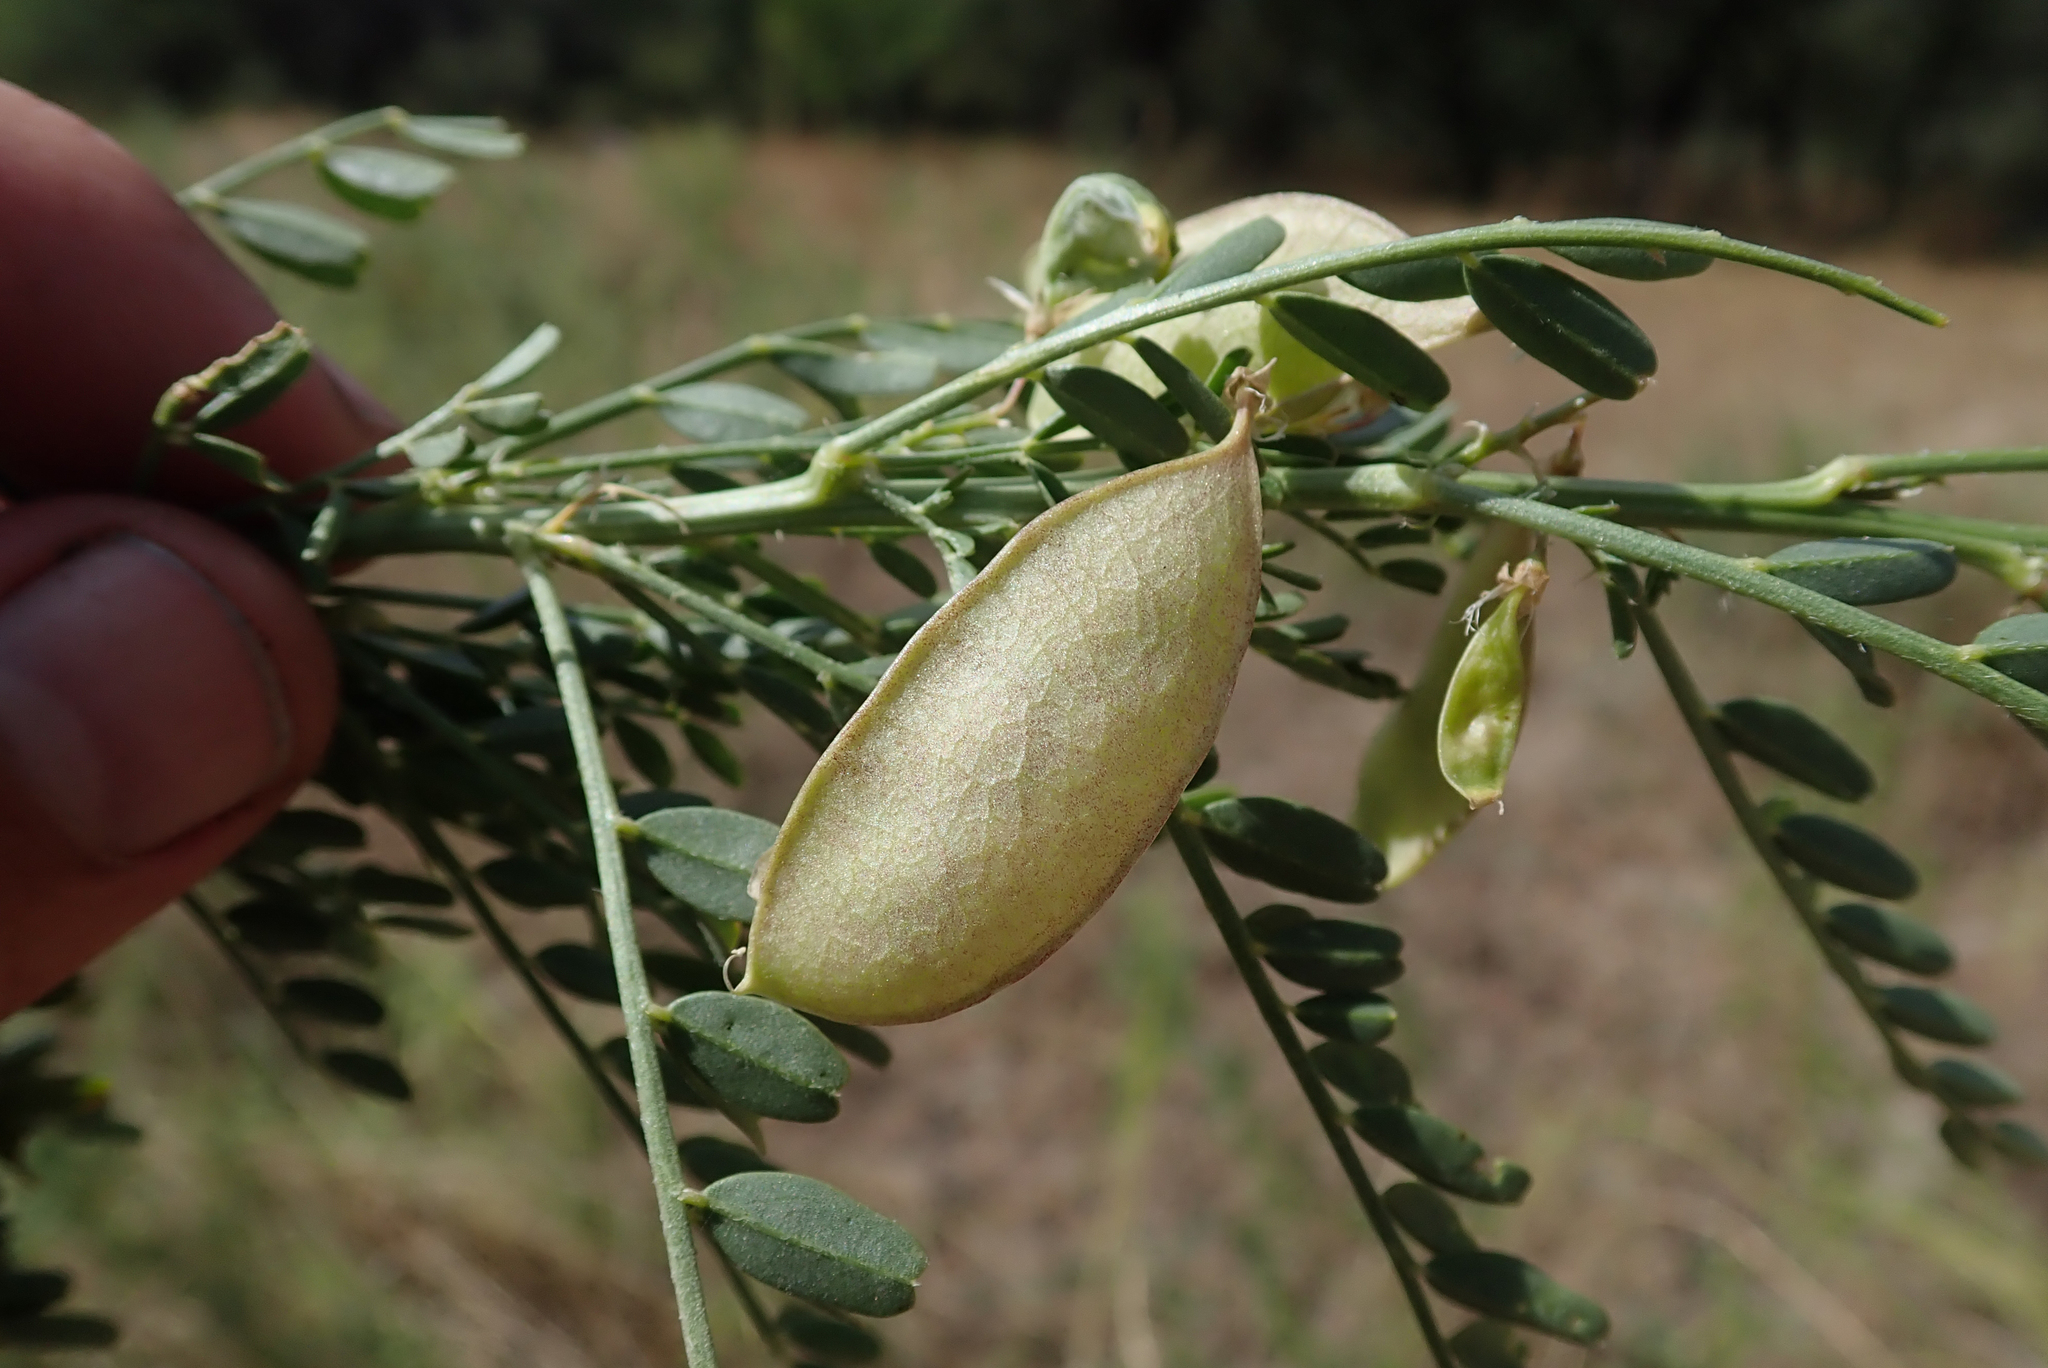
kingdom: Plantae
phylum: Tracheophyta
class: Magnoliopsida
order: Fabales
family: Fabaceae
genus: Lessertia
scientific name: Lessertia benguellensis
